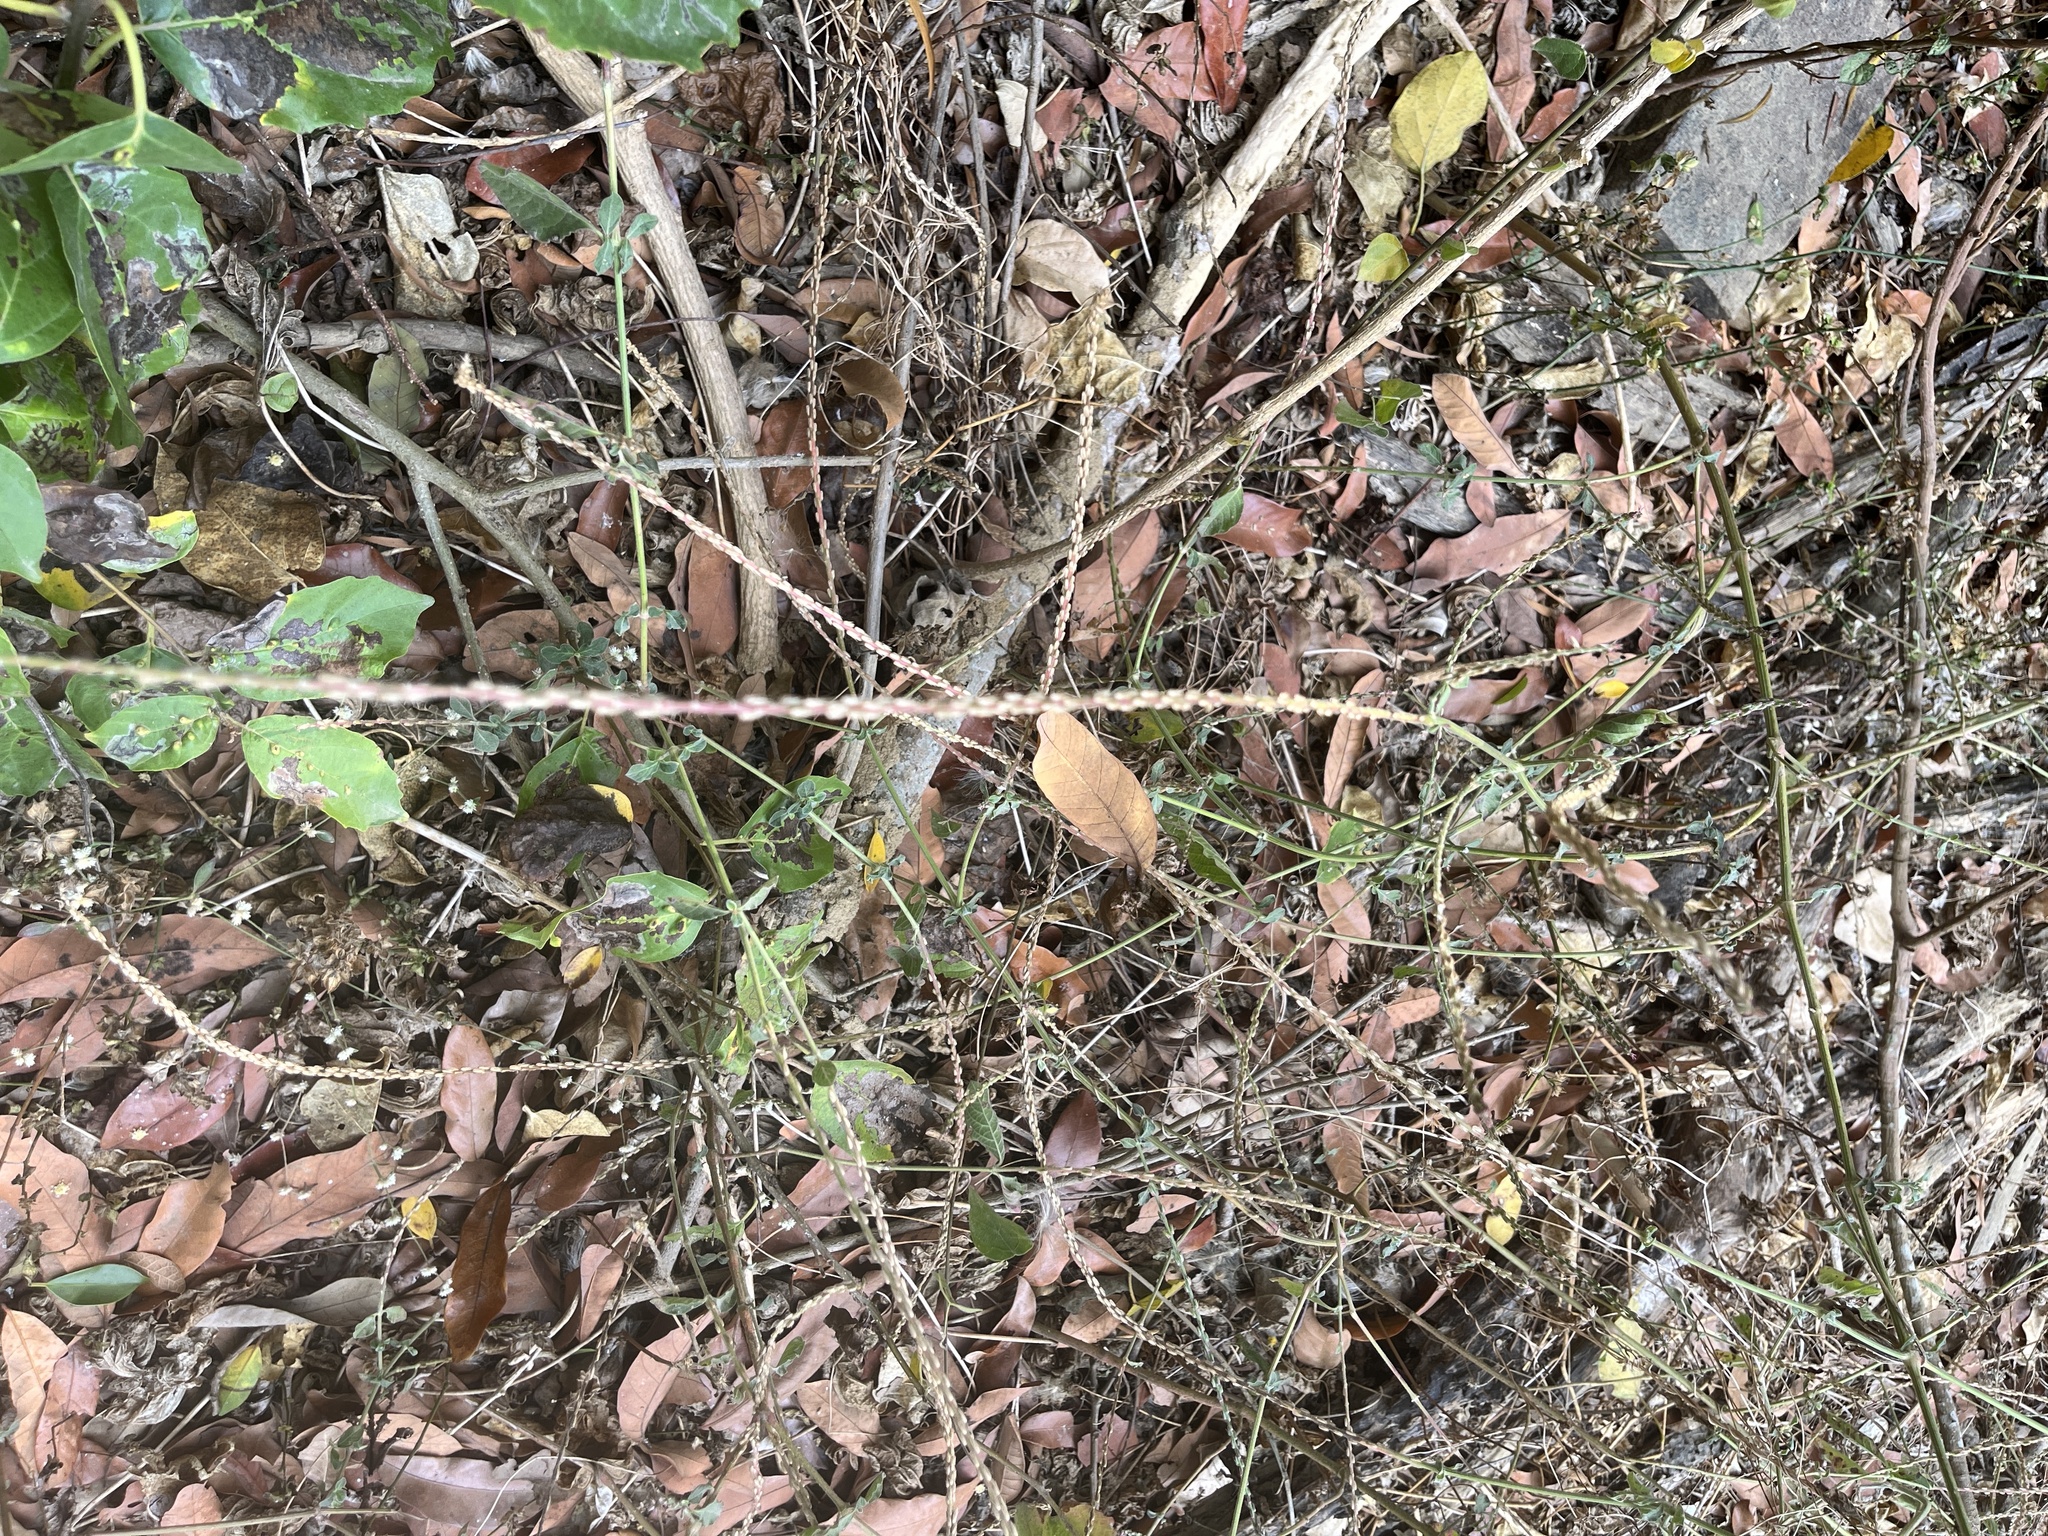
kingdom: Plantae
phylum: Tracheophyta
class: Magnoliopsida
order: Caryophyllales
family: Amaranthaceae
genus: Achyranthes
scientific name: Achyranthes aspera
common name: Devil's horsewhip
